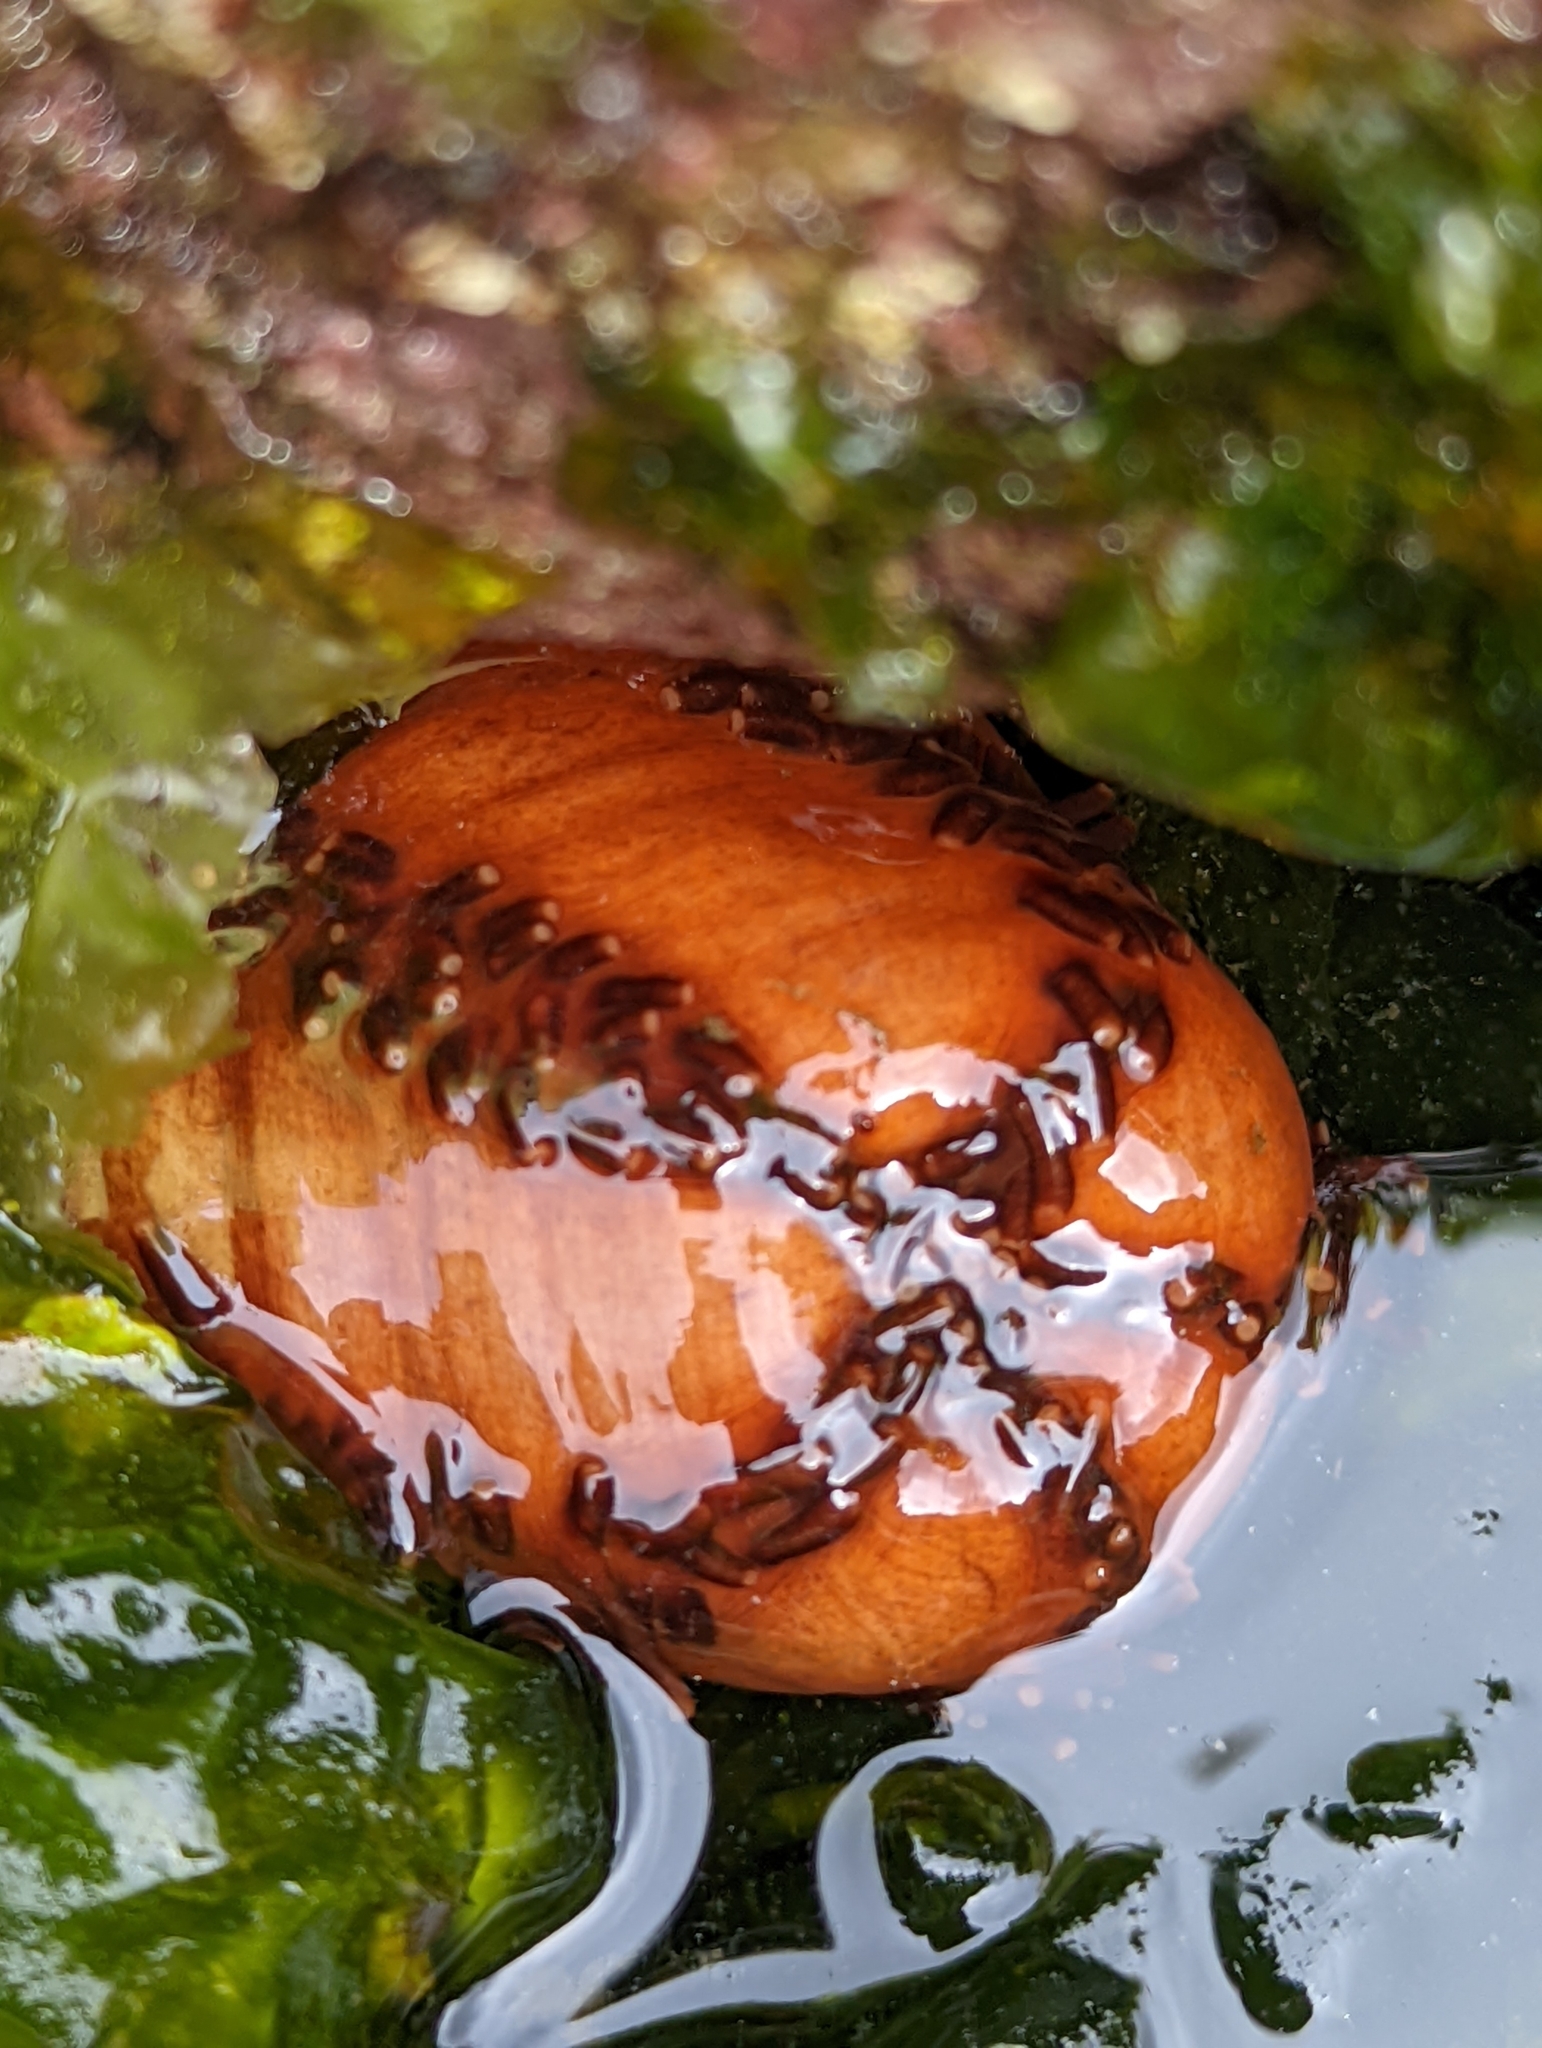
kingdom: Animalia
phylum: Echinodermata
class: Holothuroidea
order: Dendrochirotida
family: Cucumariidae
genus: Cucumaria
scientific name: Cucumaria miniata
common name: Orange sea cucumber
